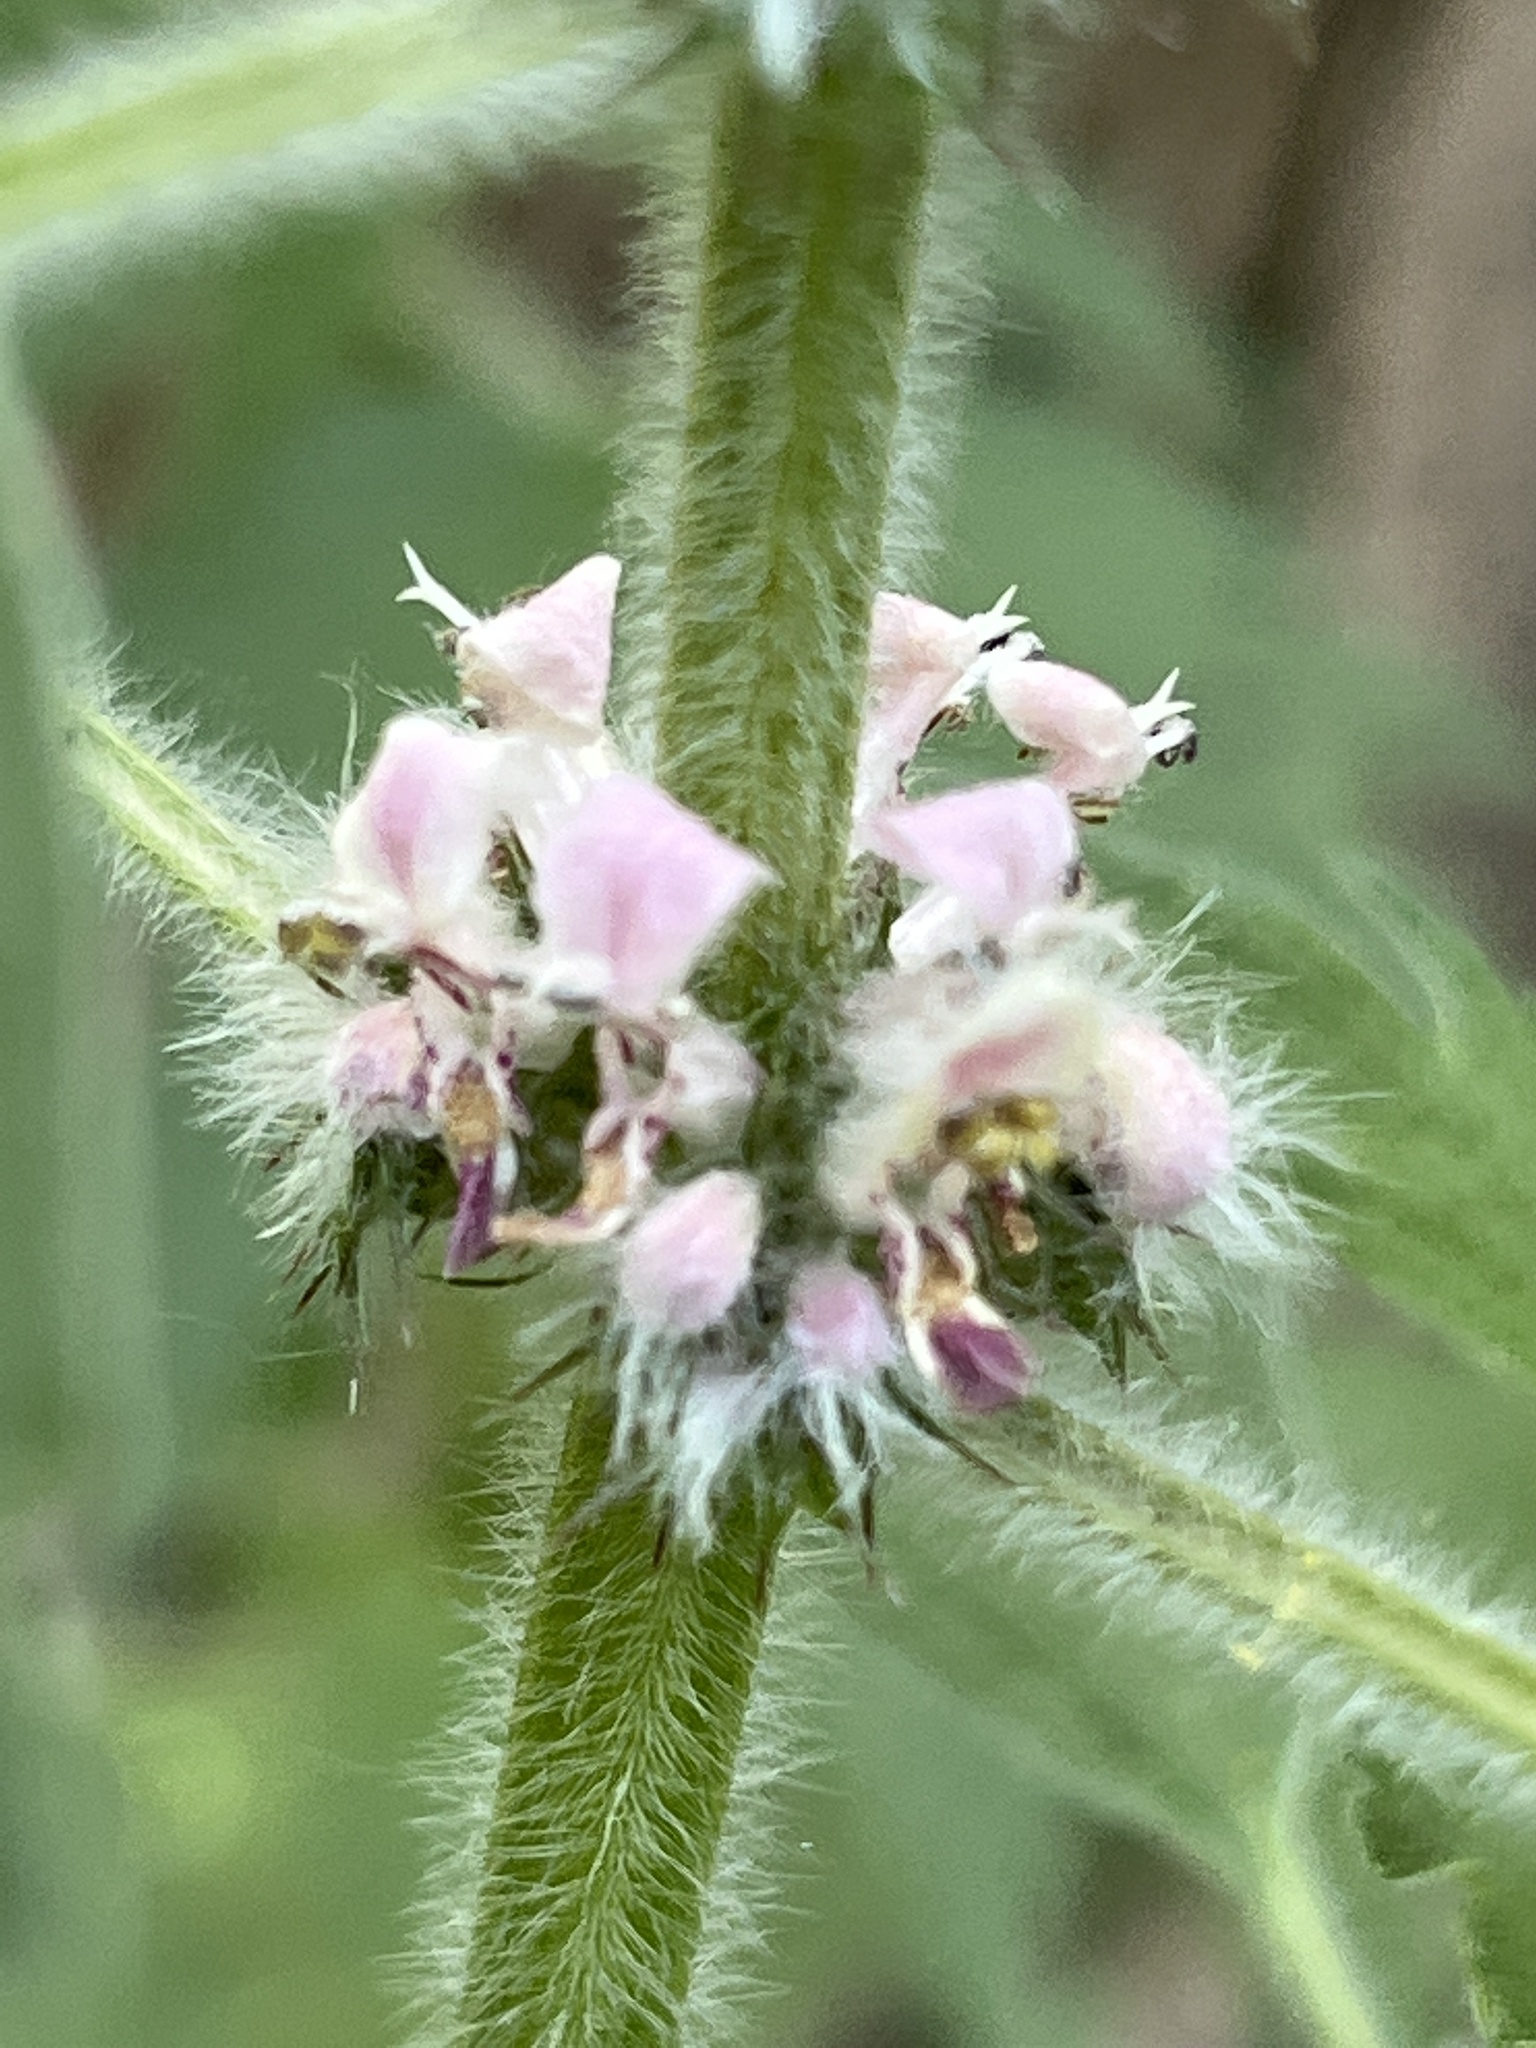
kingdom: Plantae
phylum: Tracheophyta
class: Magnoliopsida
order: Lamiales
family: Lamiaceae
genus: Leonurus
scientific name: Leonurus quinquelobatus
